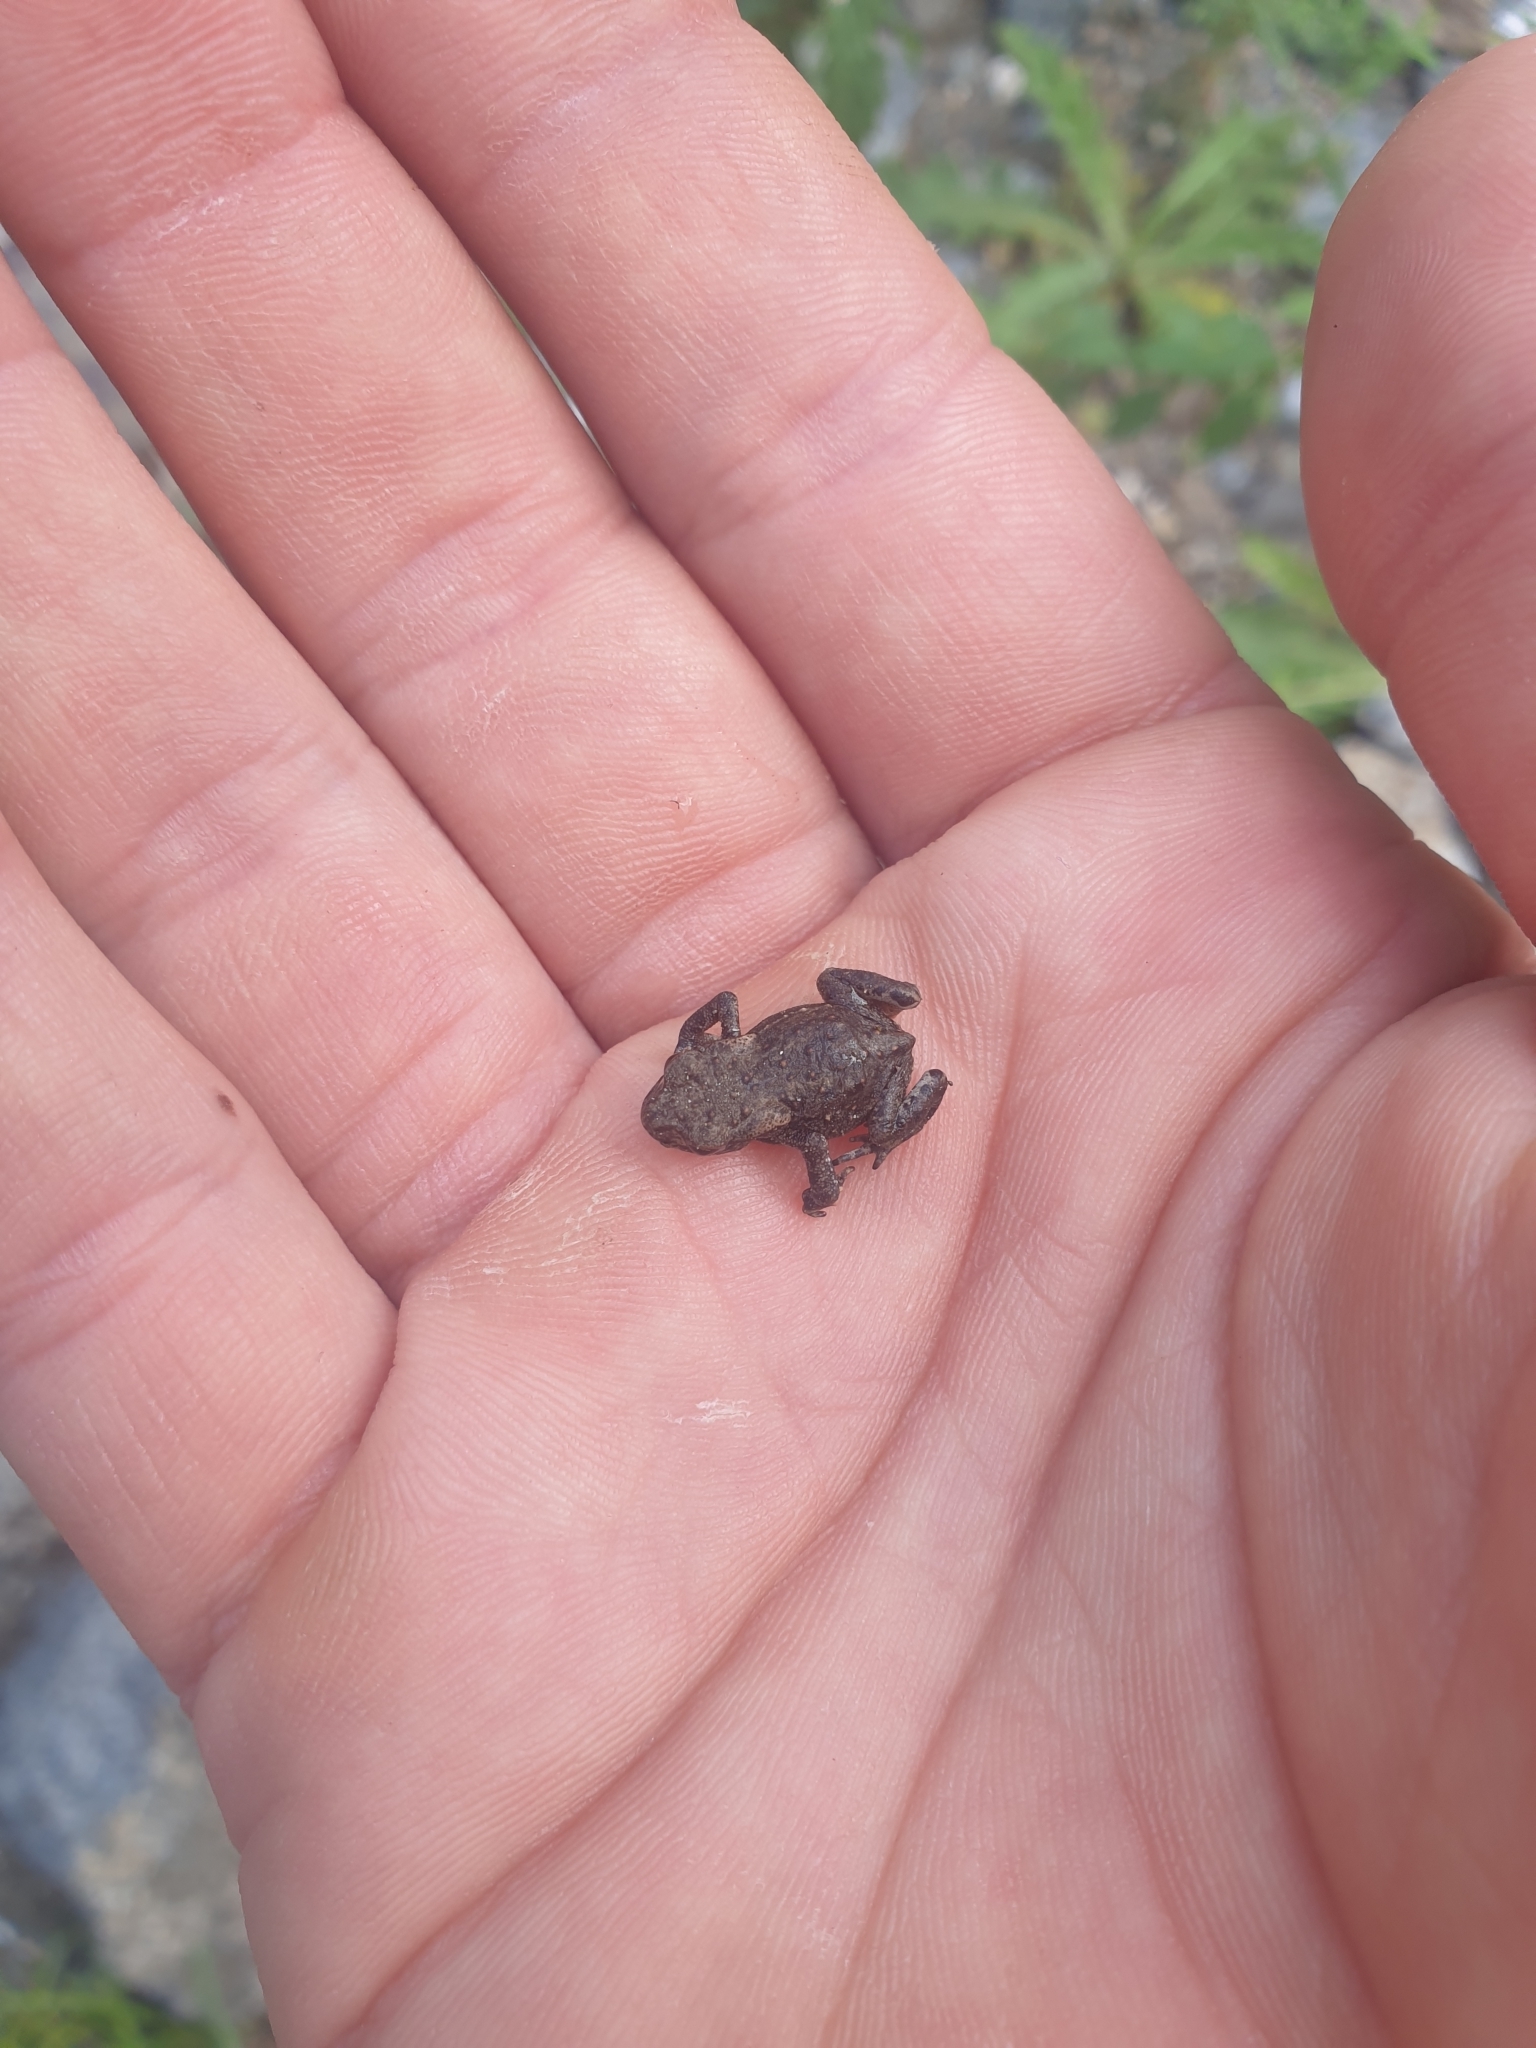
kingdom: Animalia
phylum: Chordata
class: Amphibia
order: Anura
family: Bufonidae
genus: Bufo
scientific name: Bufo bufo
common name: Common toad
